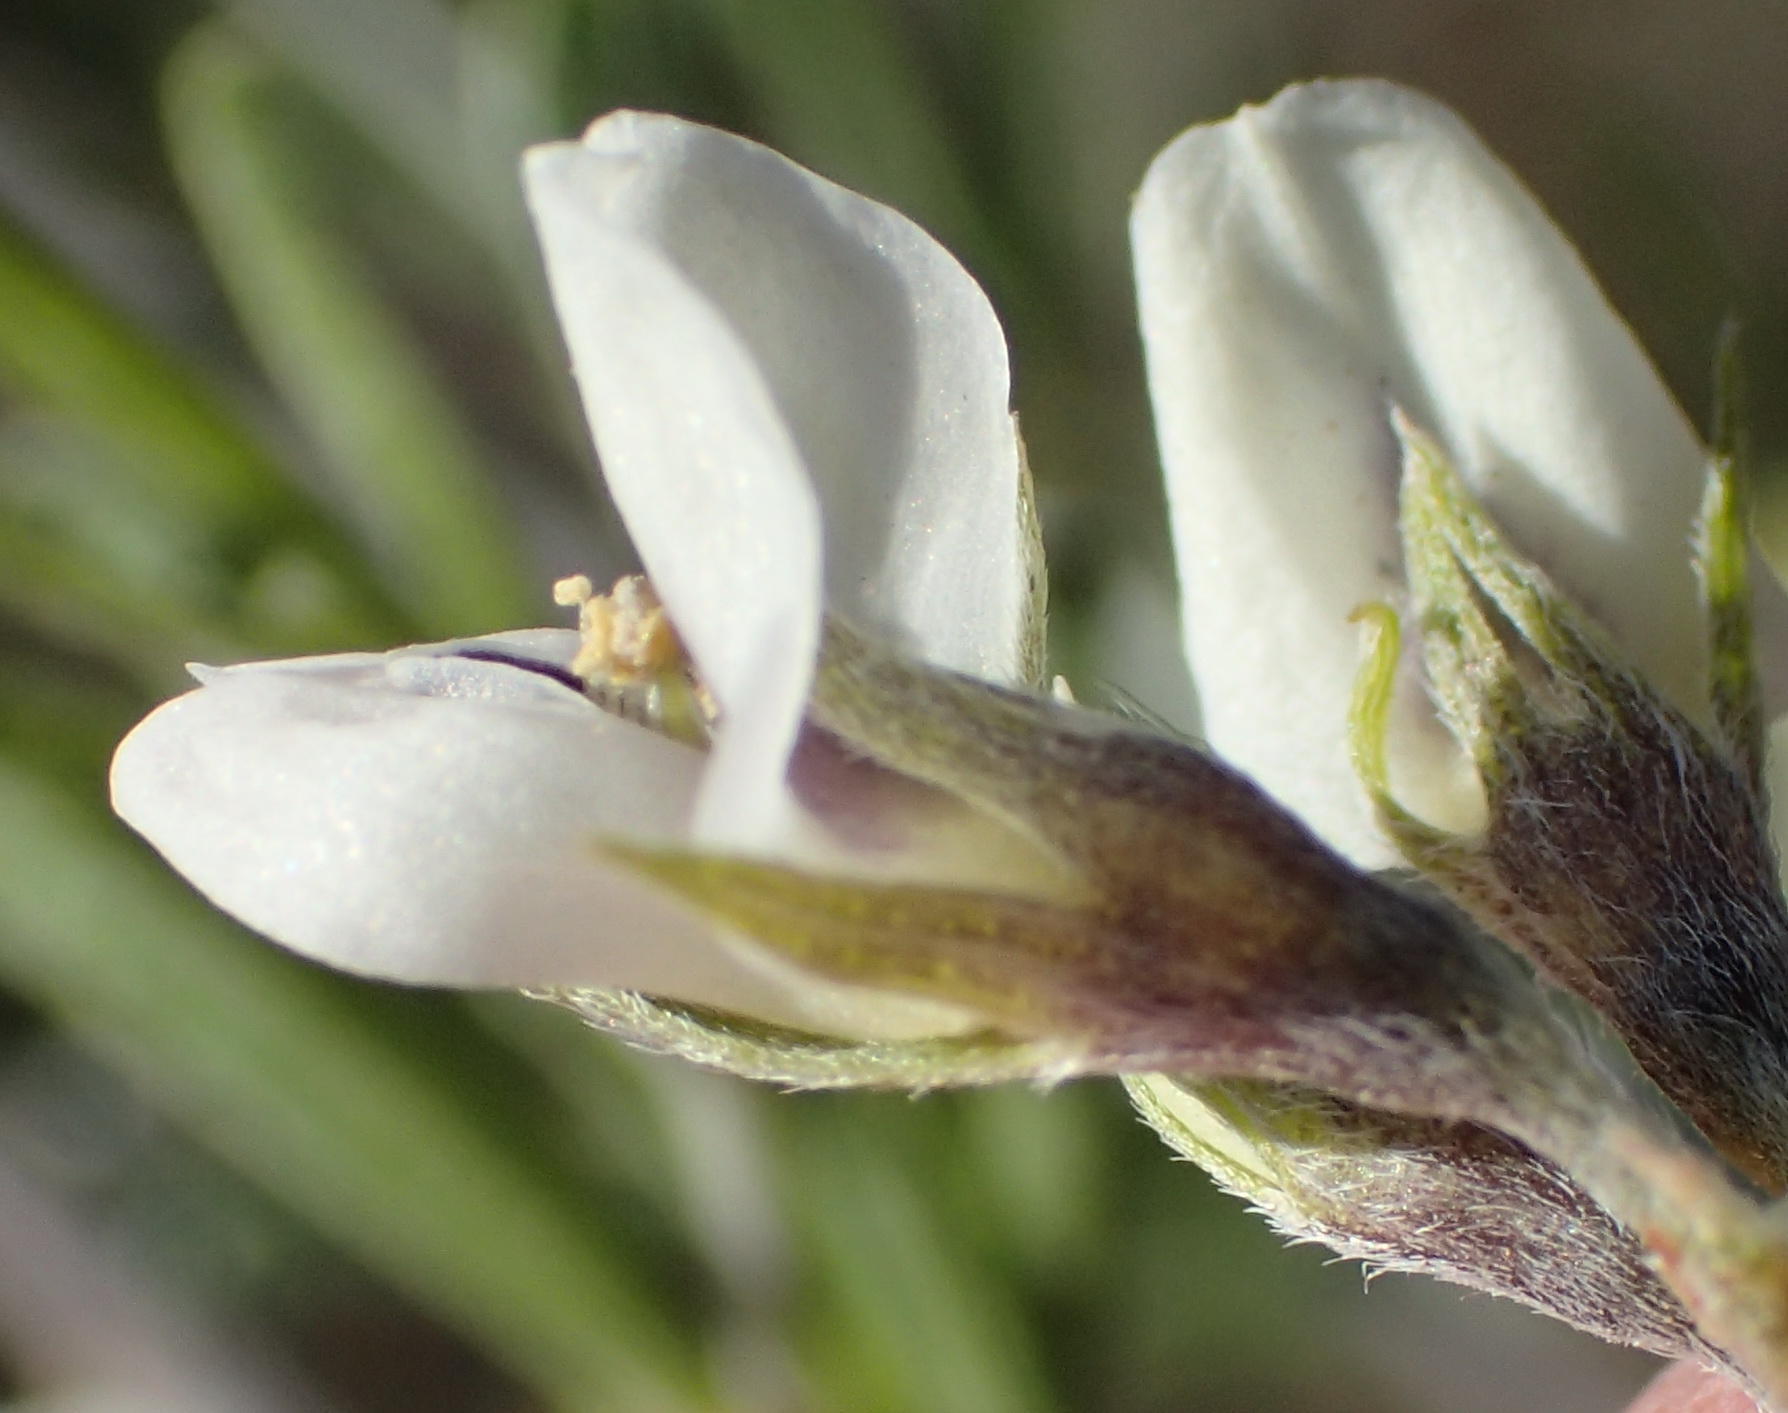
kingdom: Plantae
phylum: Tracheophyta
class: Magnoliopsida
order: Fabales
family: Fabaceae
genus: Psoralea
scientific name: Psoralea candicans
